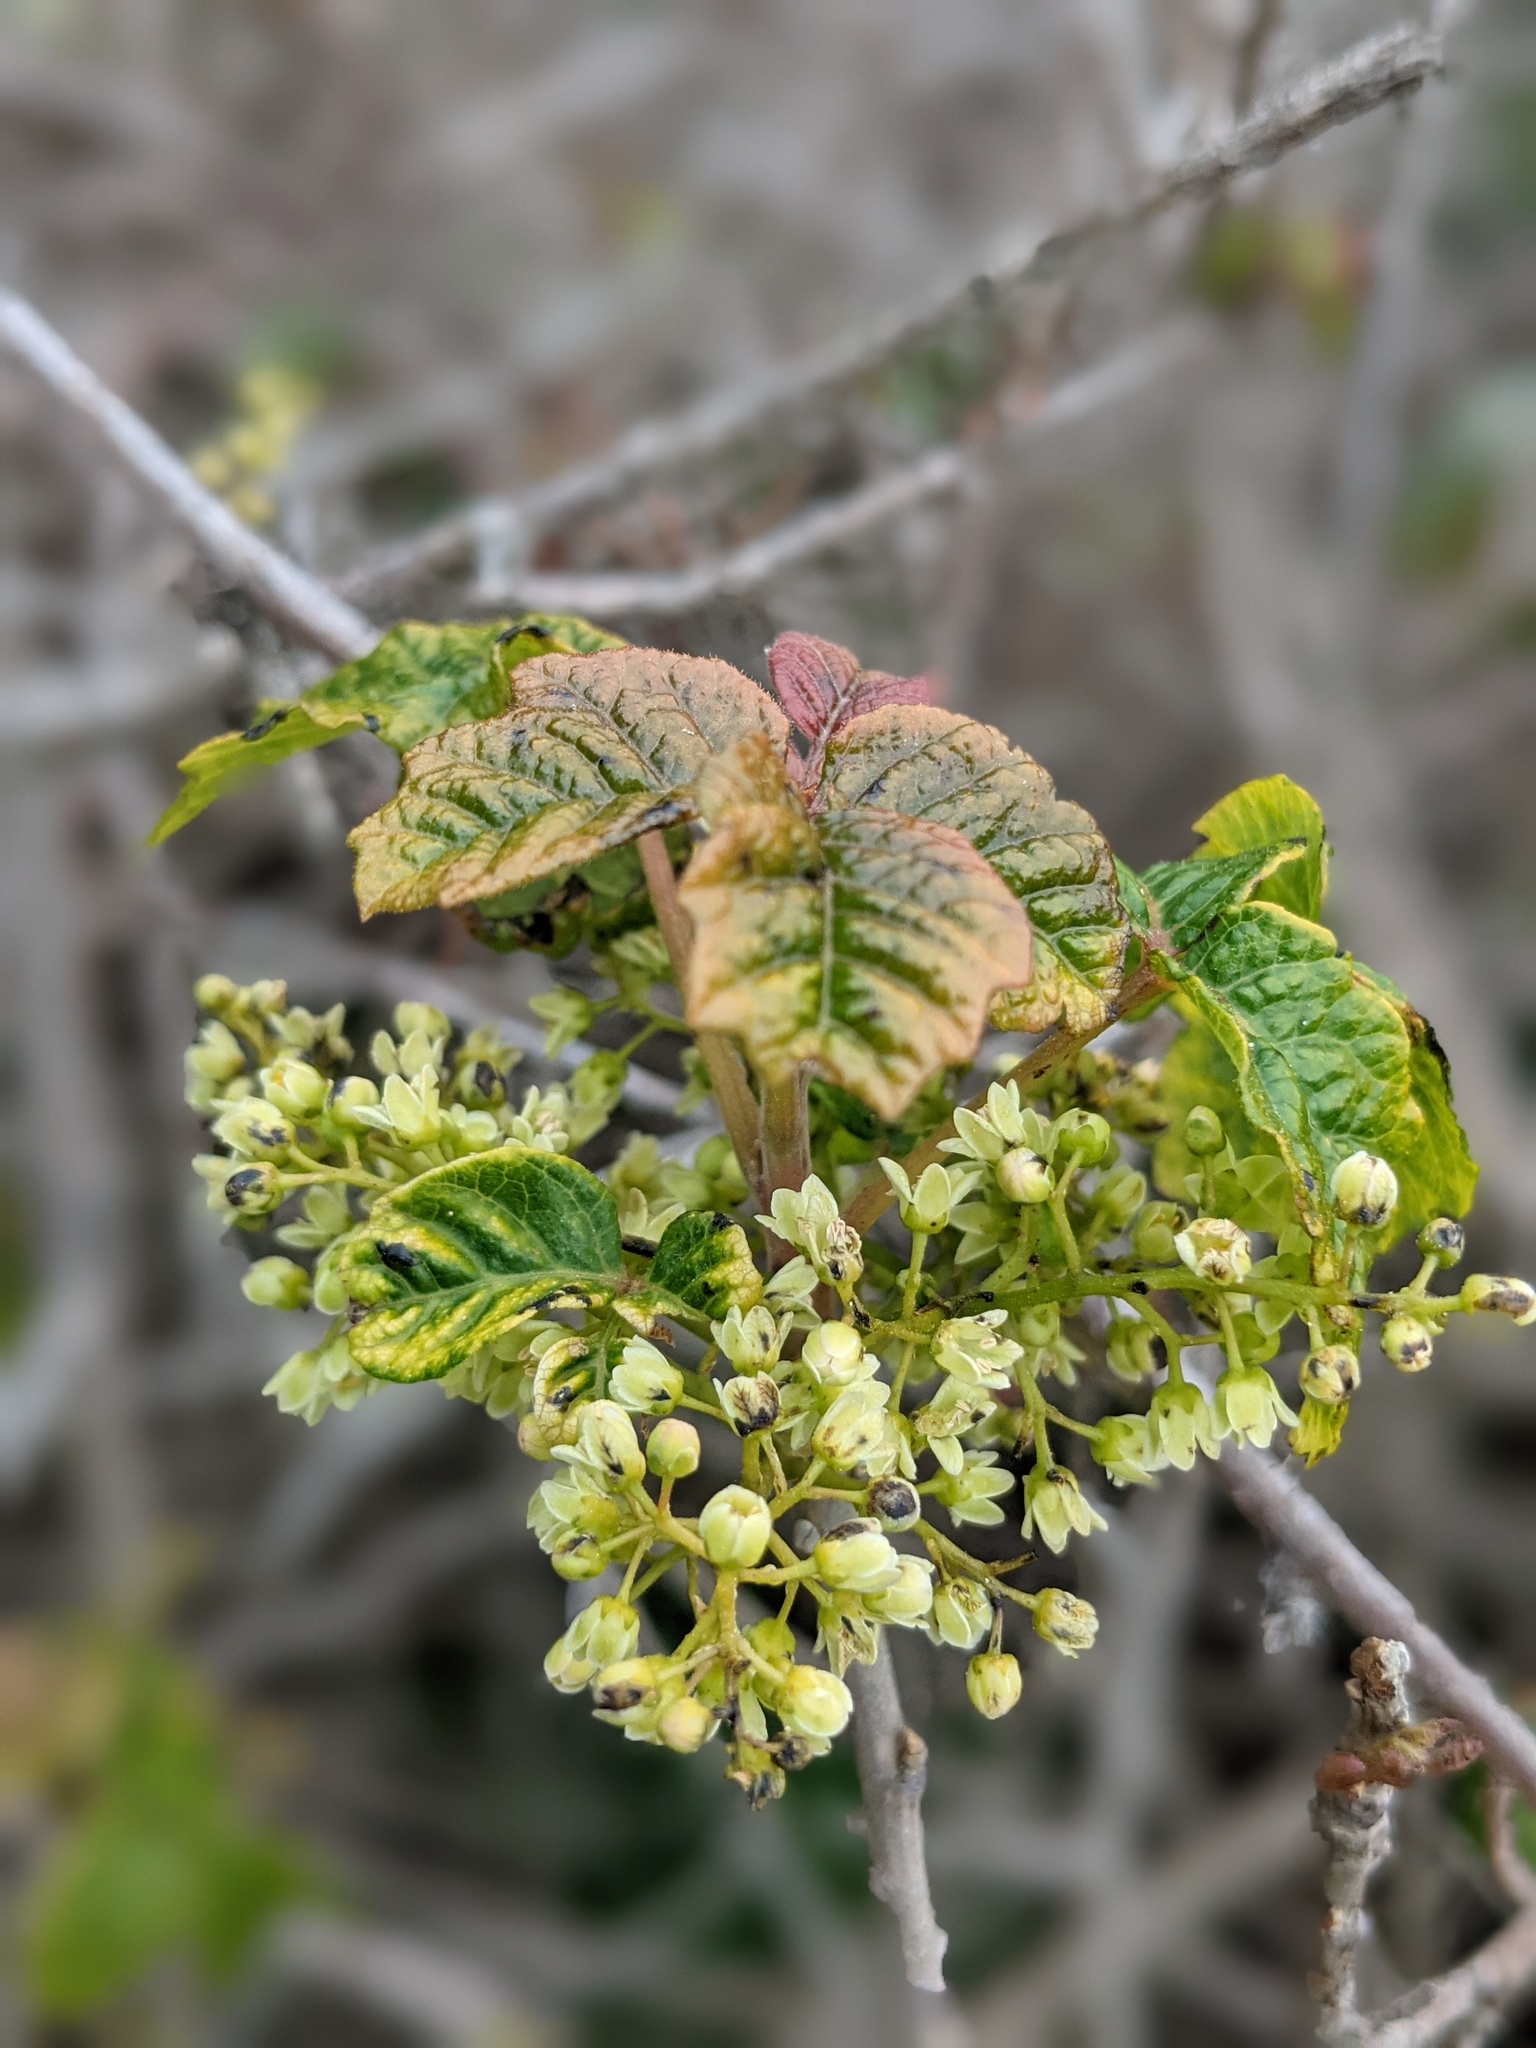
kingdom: Plantae
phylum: Tracheophyta
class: Magnoliopsida
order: Sapindales
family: Anacardiaceae
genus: Toxicodendron
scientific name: Toxicodendron diversilobum
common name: Pacific poison-oak
